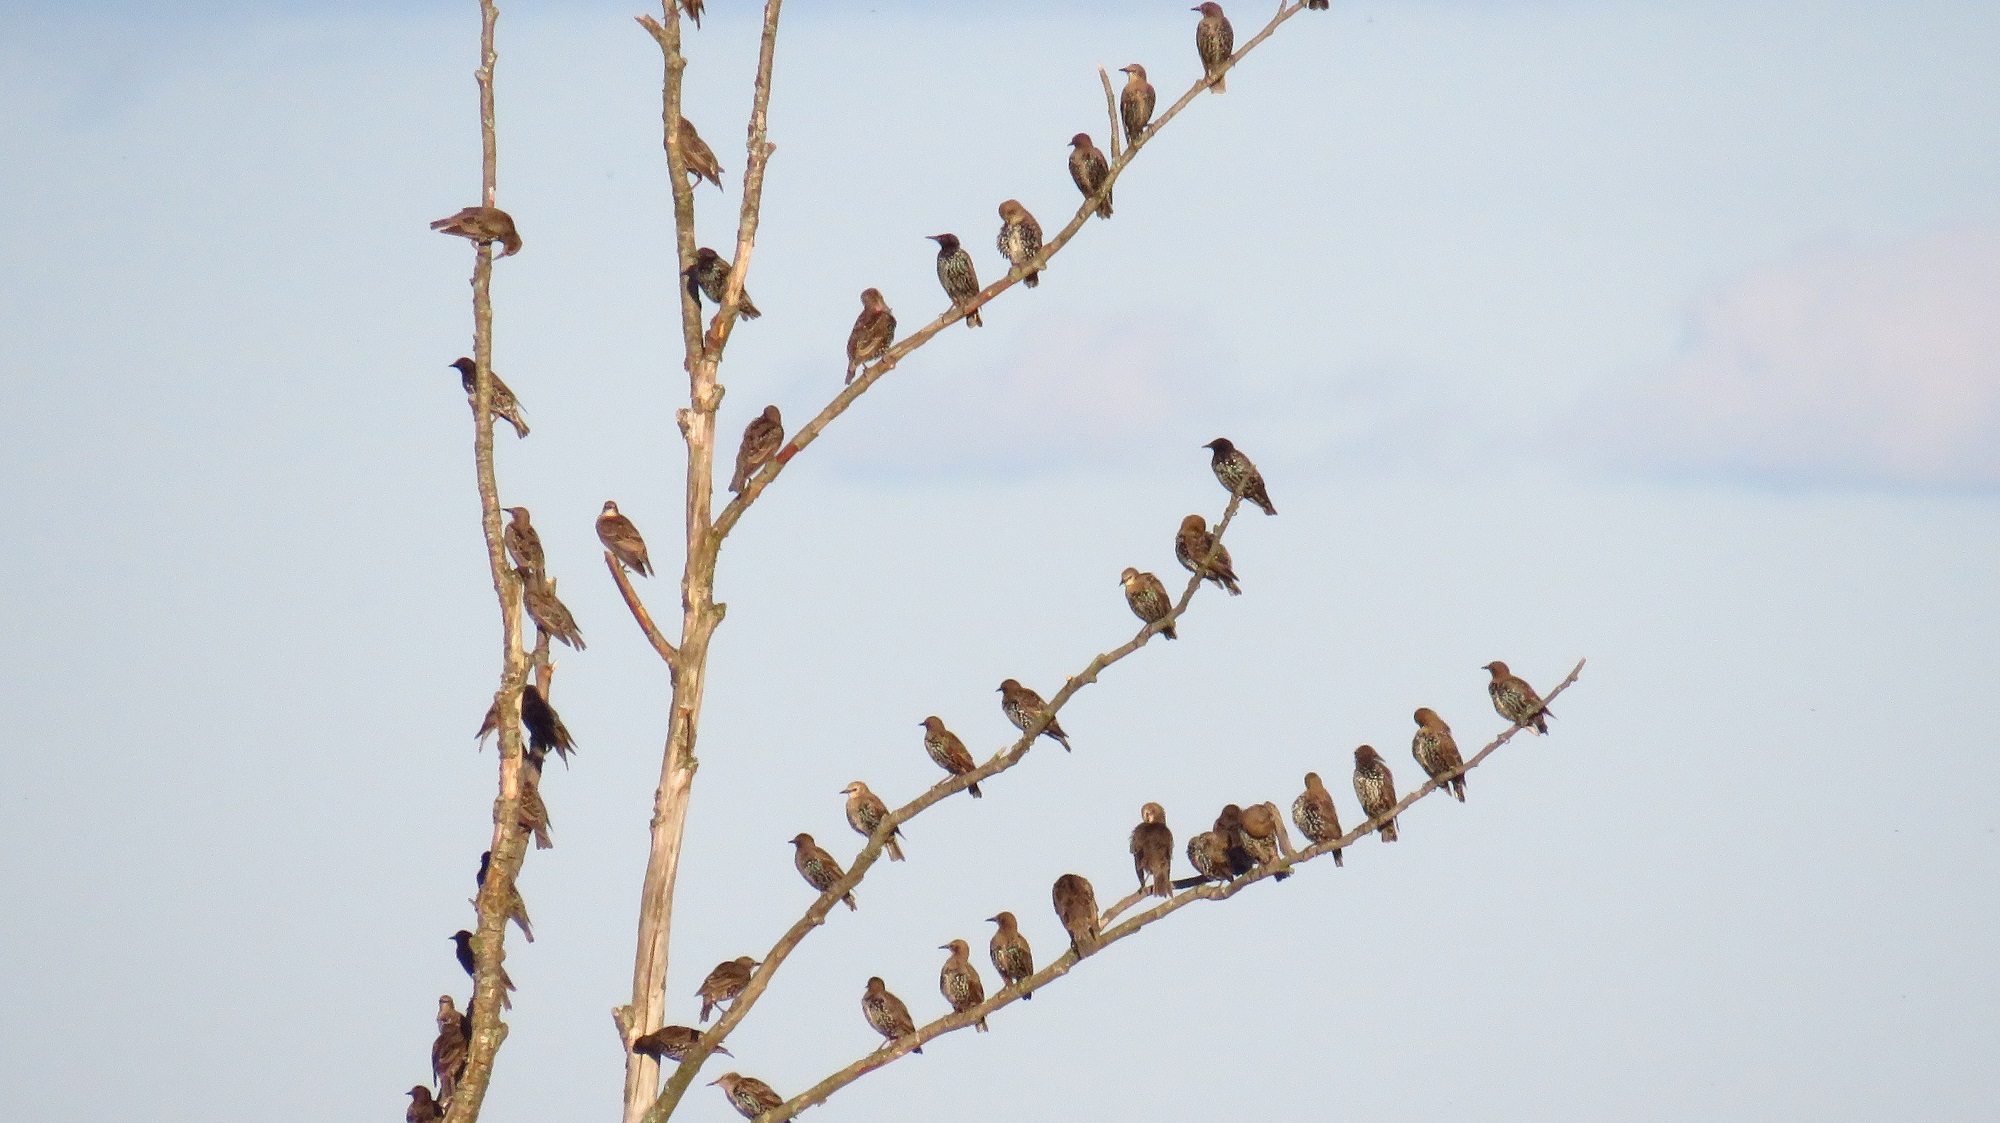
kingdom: Animalia
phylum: Chordata
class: Aves
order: Passeriformes
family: Sturnidae
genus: Sturnus
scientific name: Sturnus vulgaris
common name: Common starling
